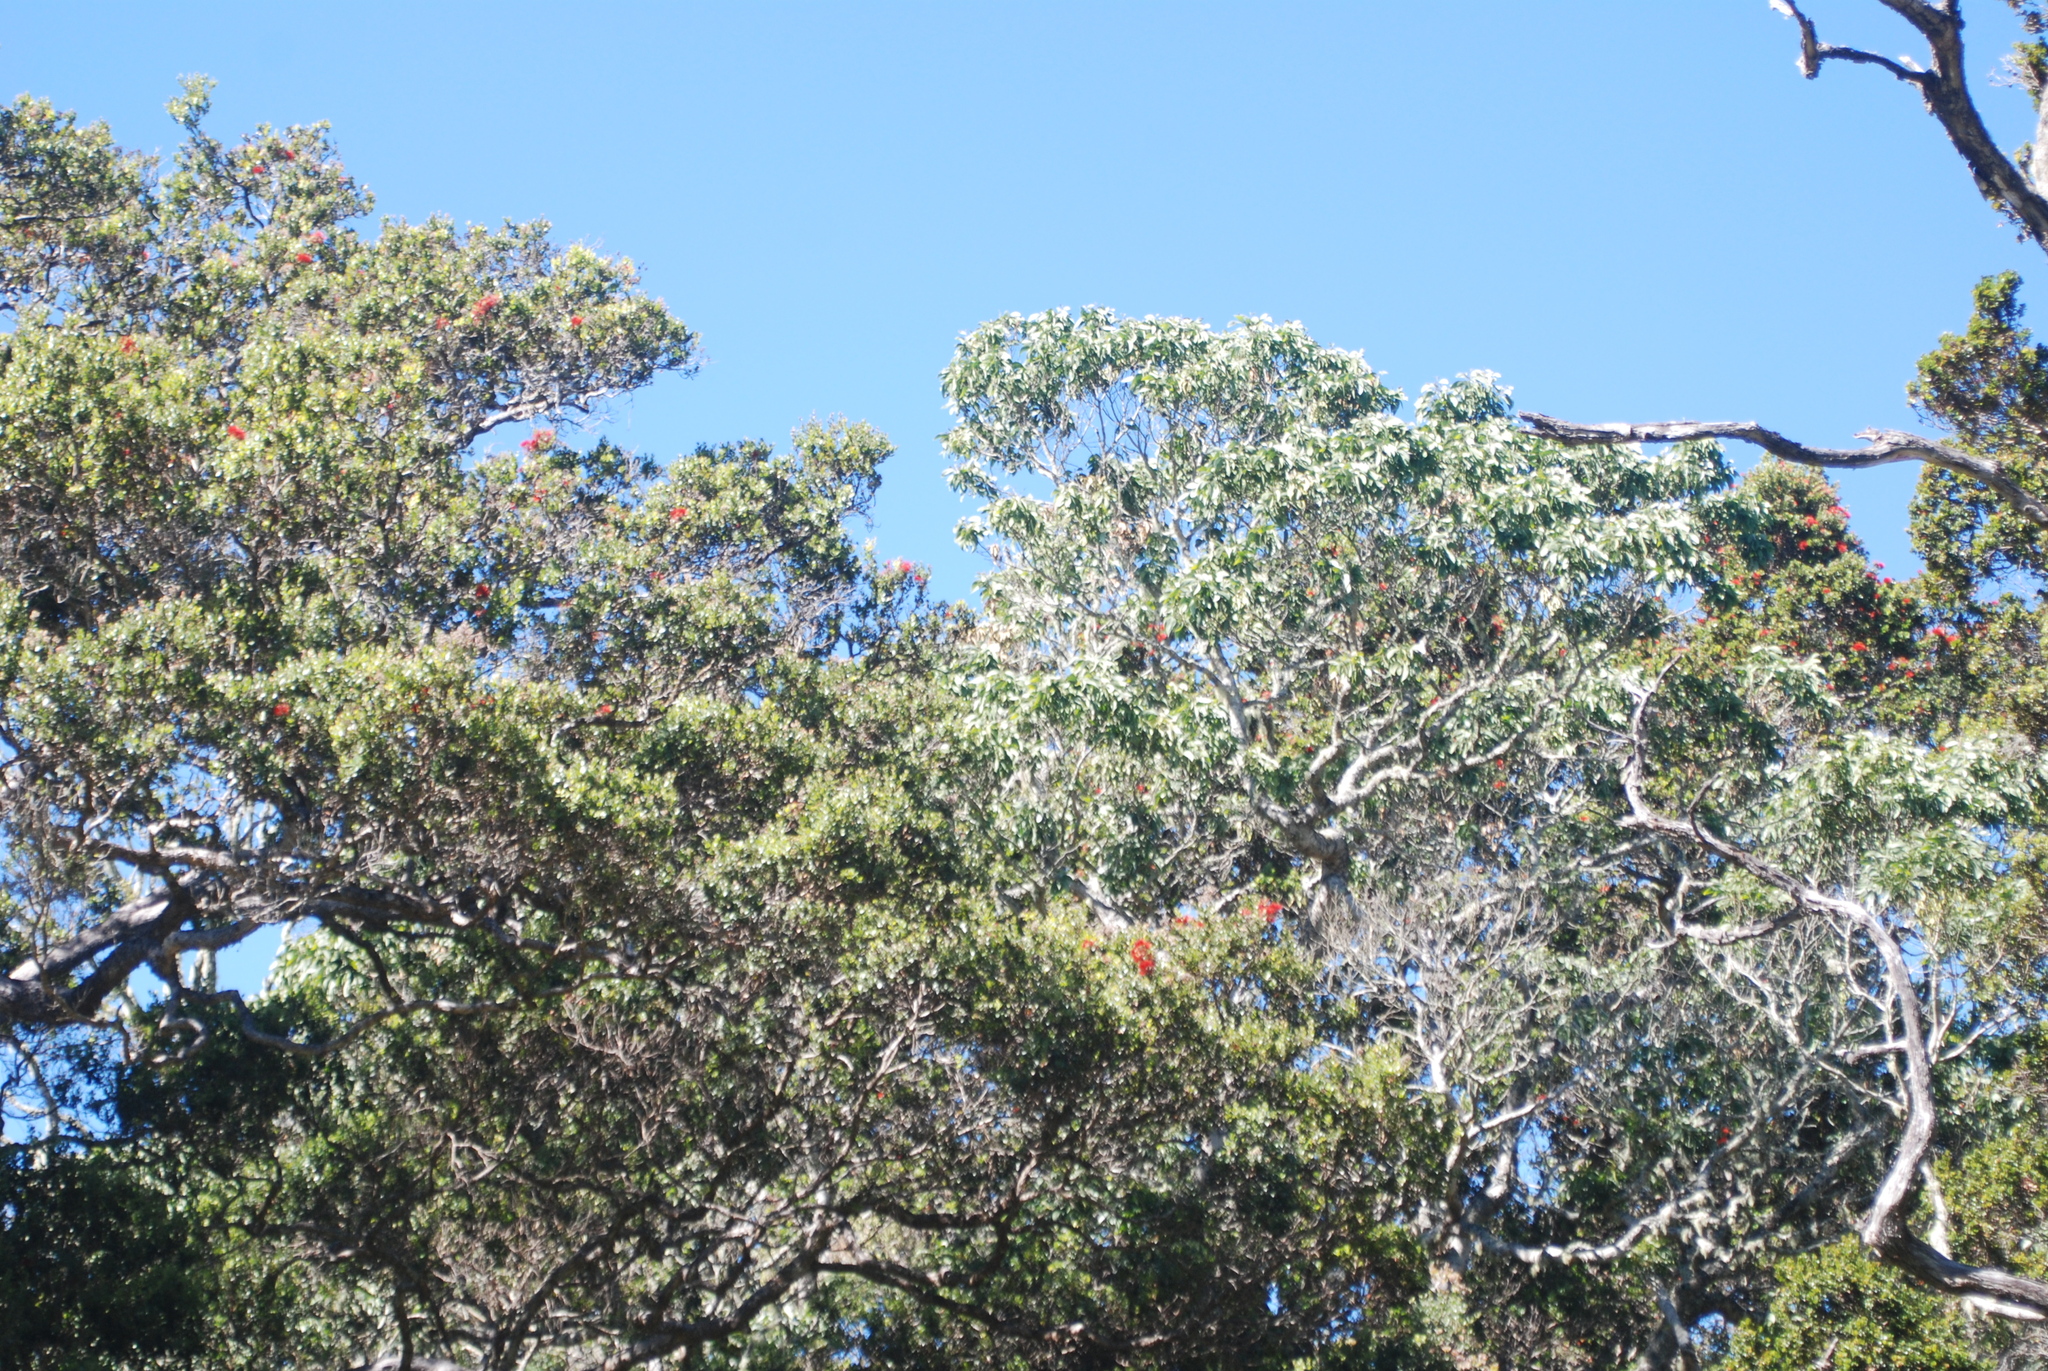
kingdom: Plantae
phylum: Tracheophyta
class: Magnoliopsida
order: Myrtales
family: Myrtaceae
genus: Metrosideros
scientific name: Metrosideros polymorpha
